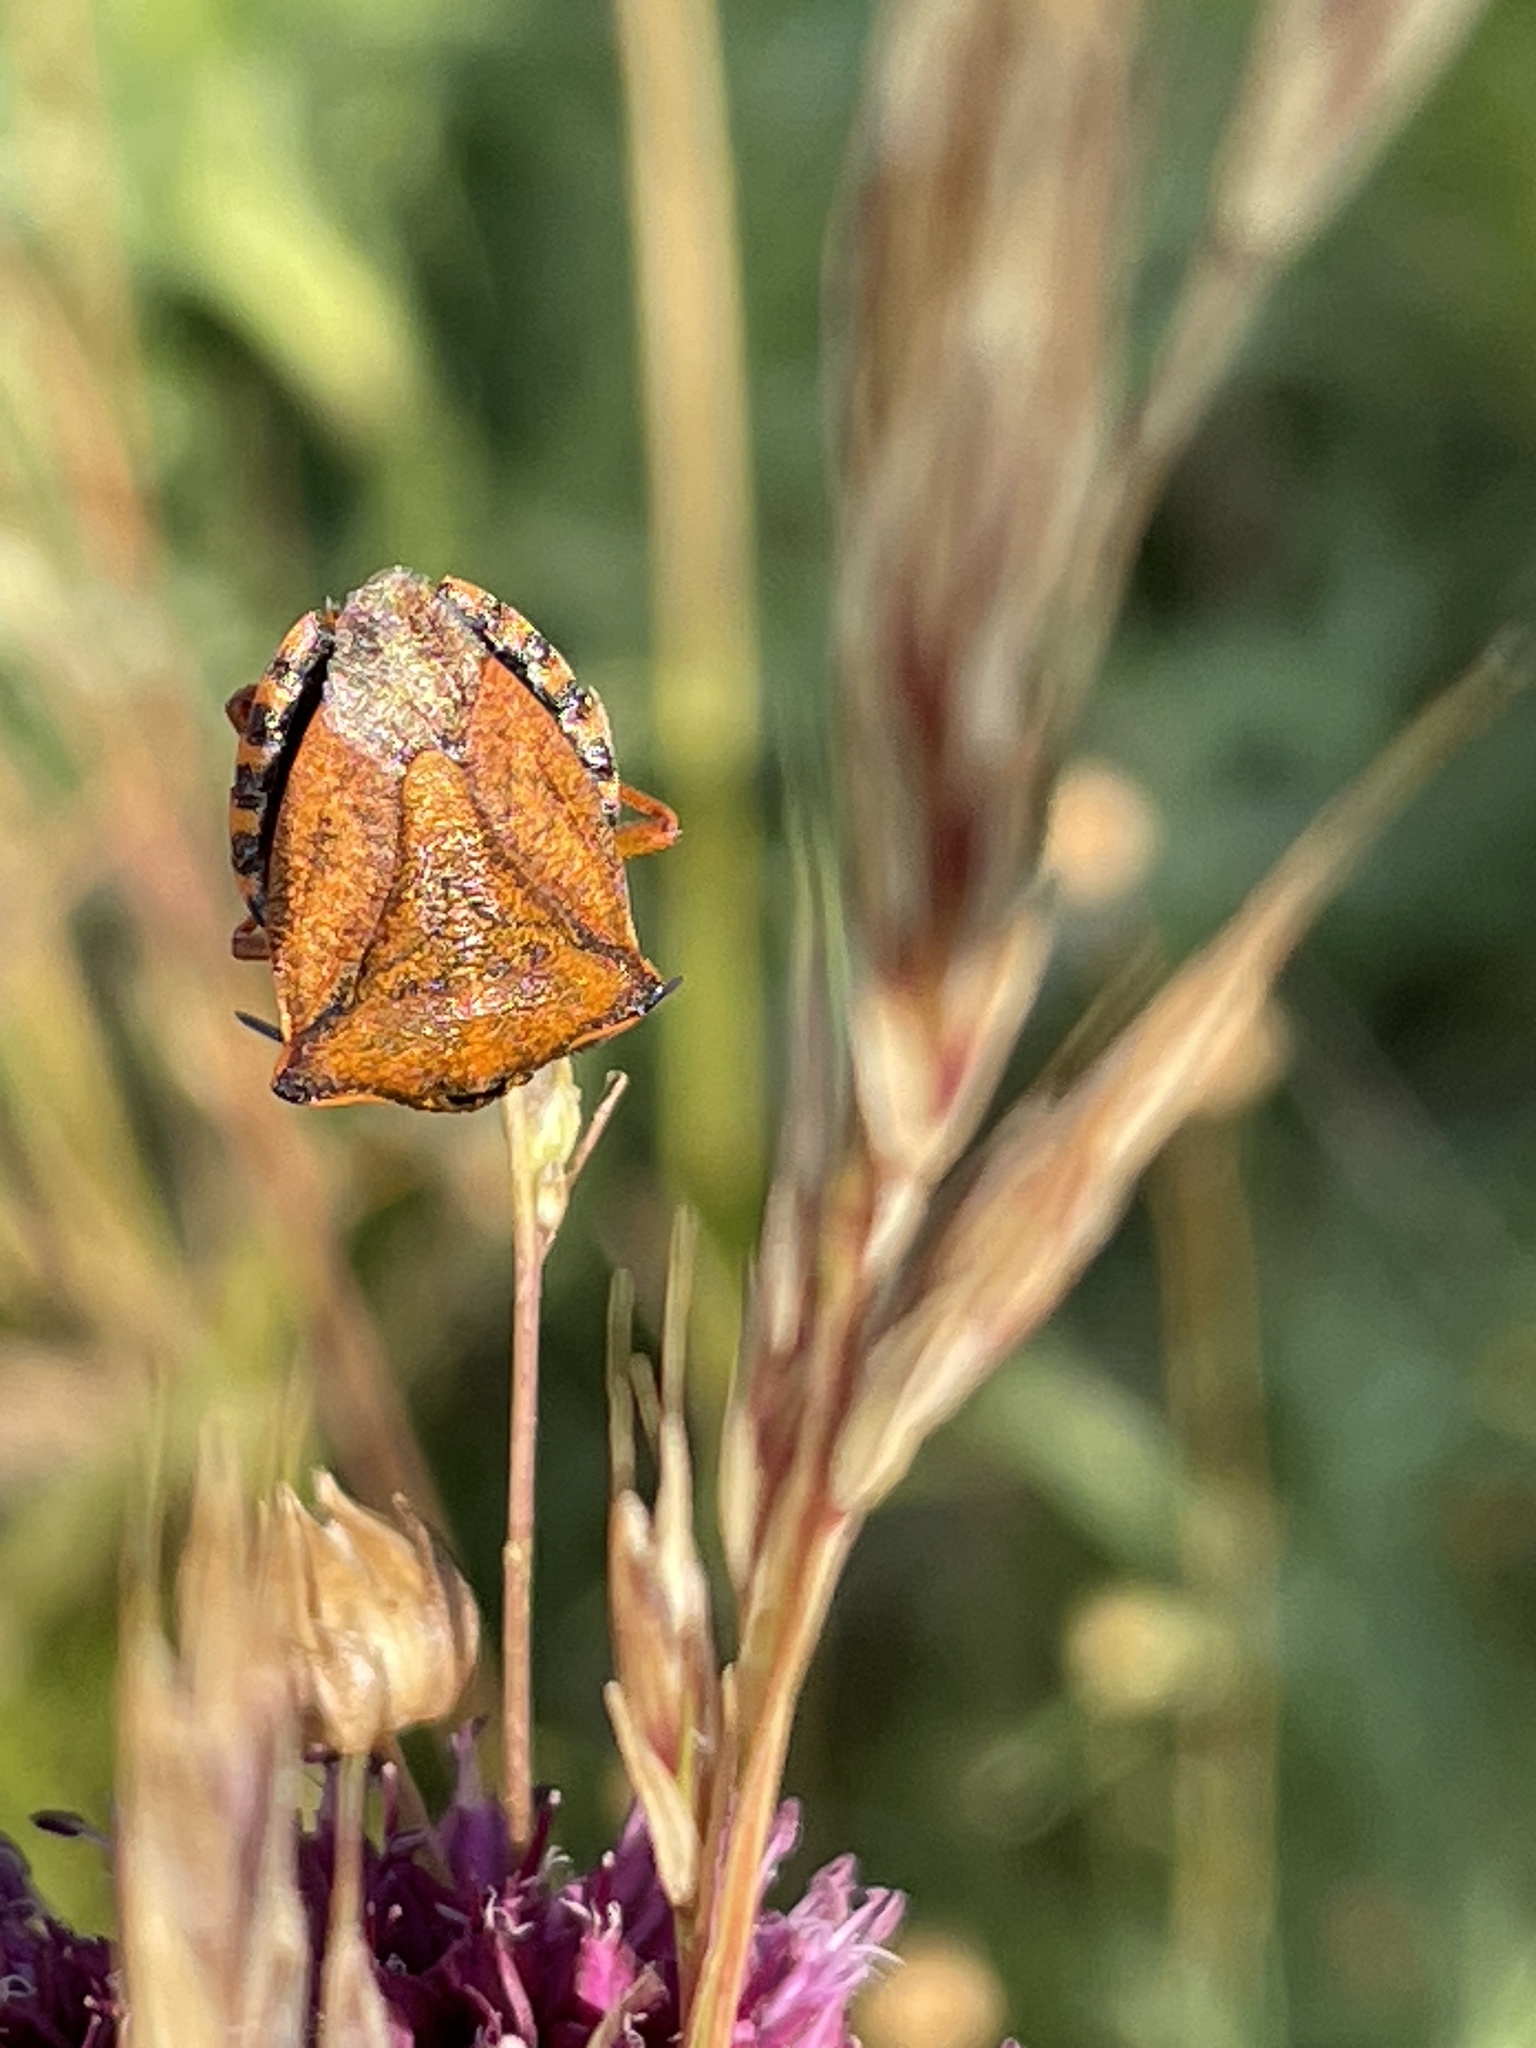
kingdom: Animalia
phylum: Arthropoda
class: Insecta
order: Hemiptera
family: Pentatomidae
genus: Carpocoris
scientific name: Carpocoris mediterraneus
